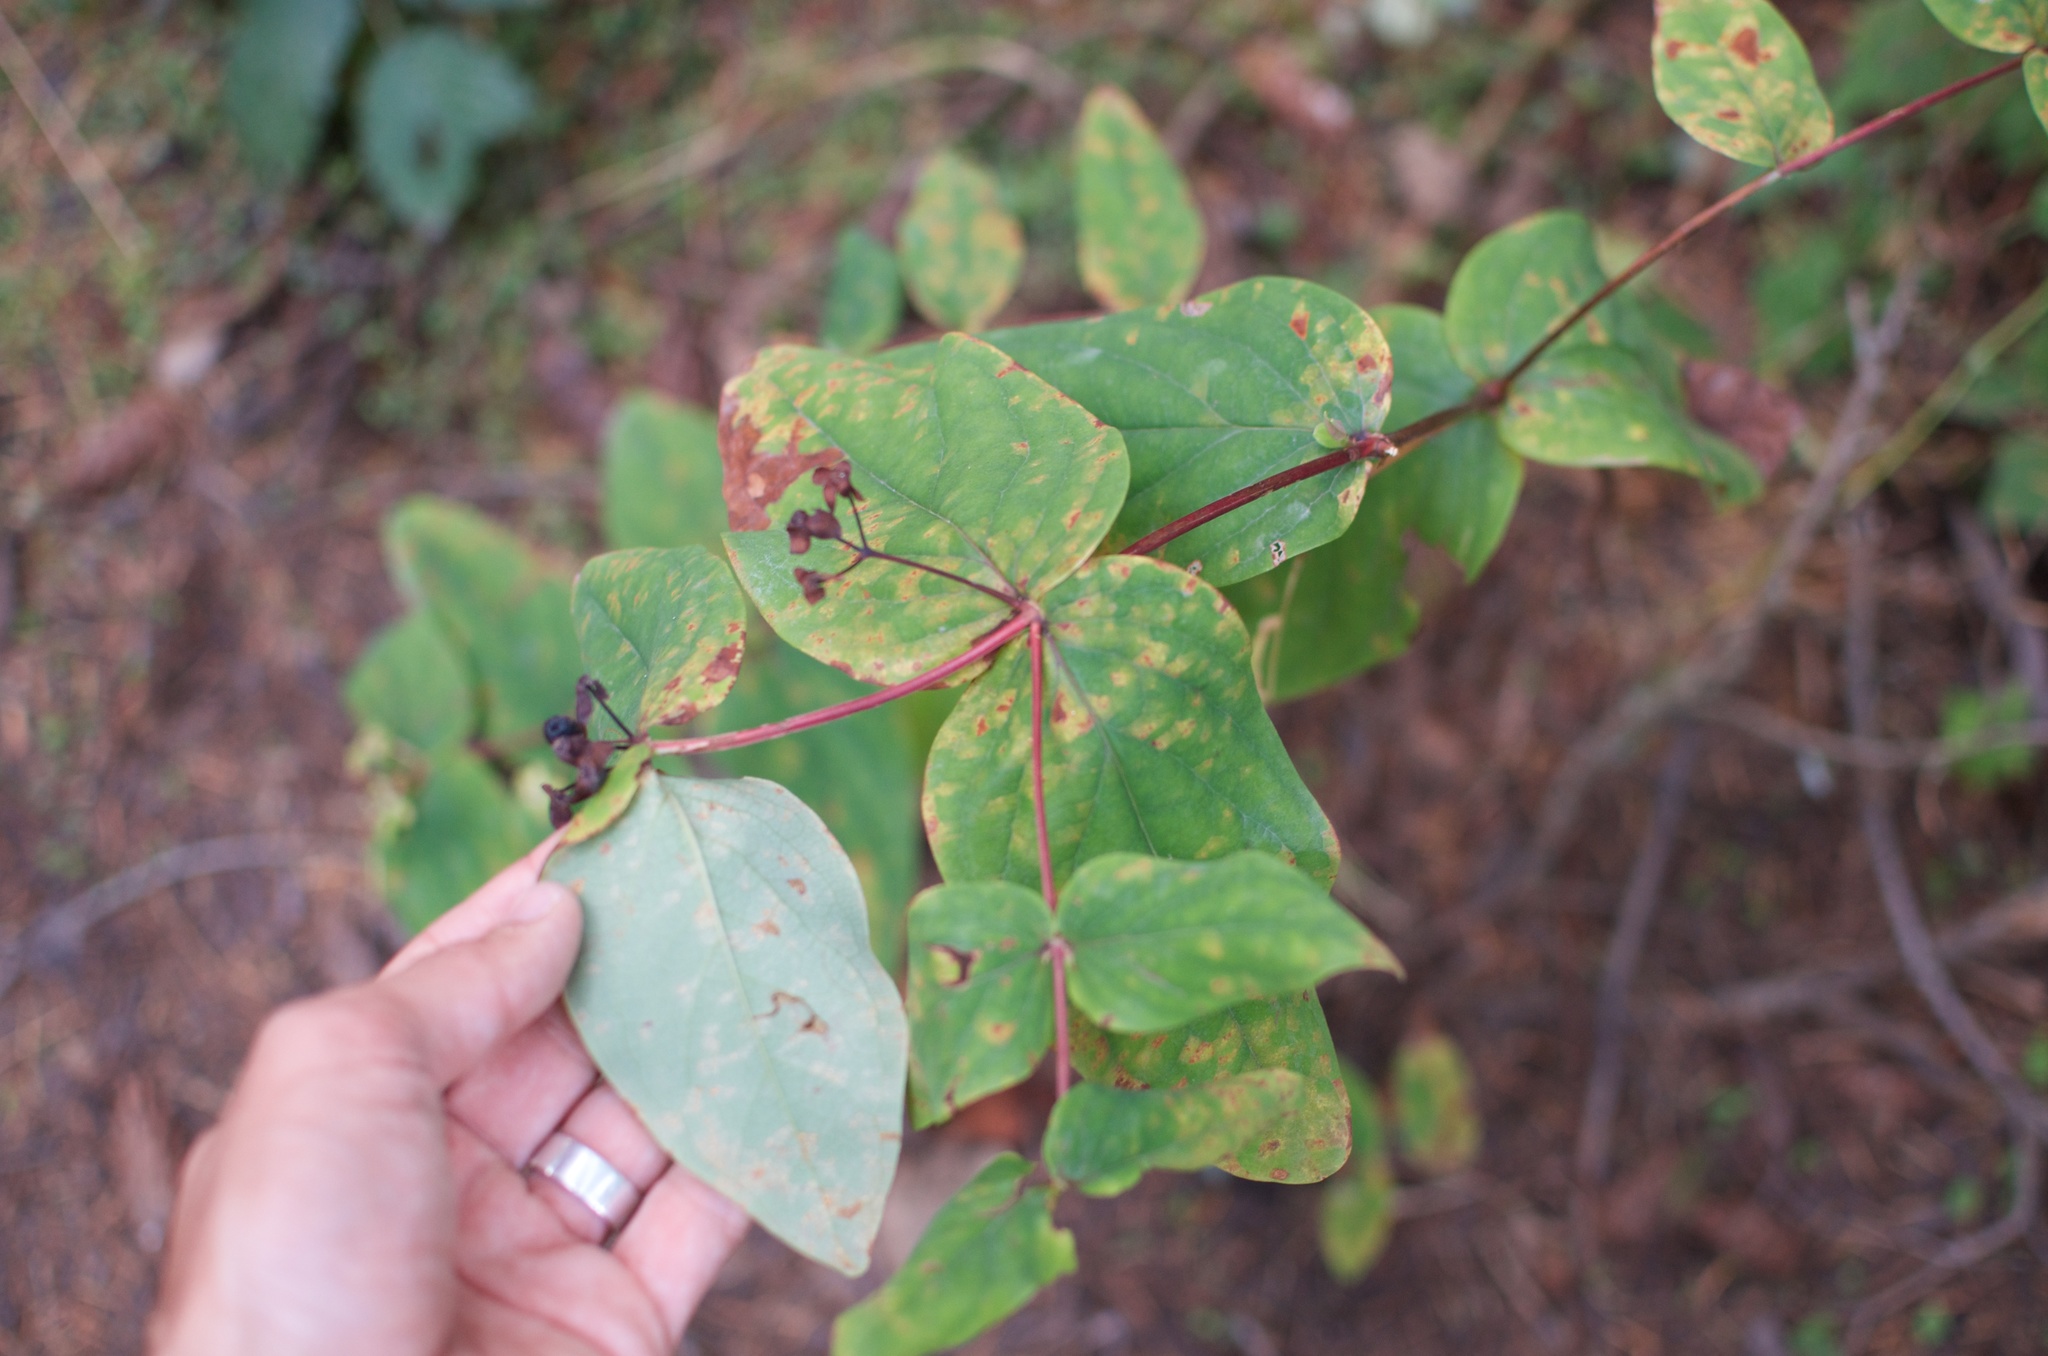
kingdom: Plantae
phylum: Tracheophyta
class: Magnoliopsida
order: Malpighiales
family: Hypericaceae
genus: Hypericum
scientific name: Hypericum androsaemum
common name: Sweet-amber
